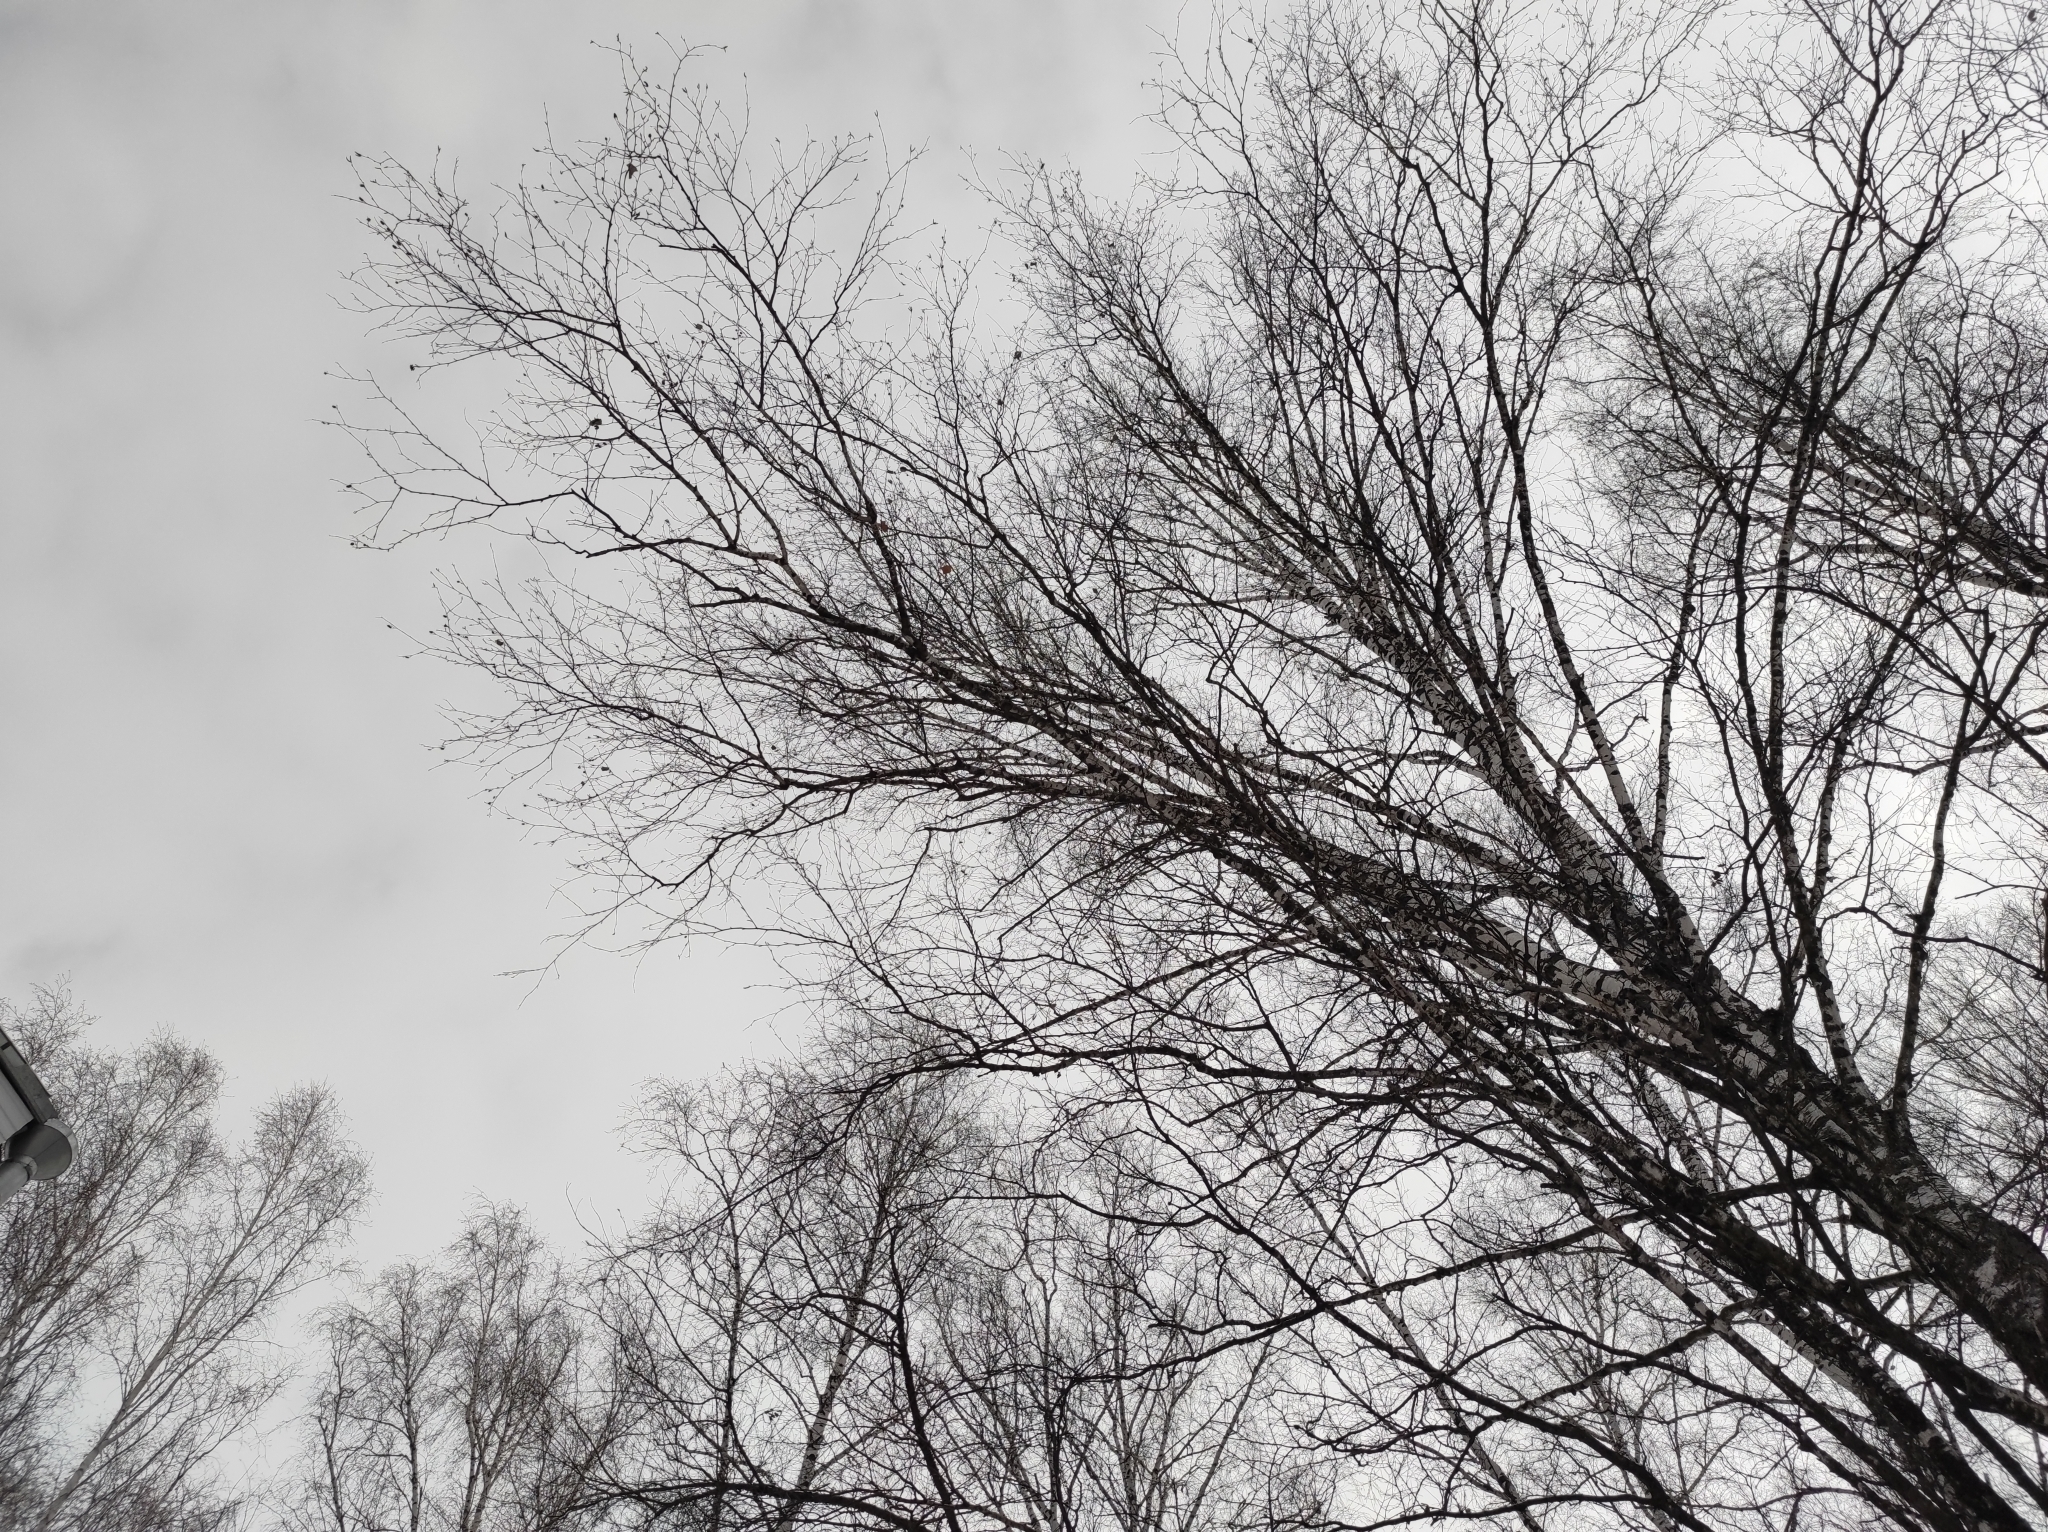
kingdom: Animalia
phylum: Chordata
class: Aves
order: Passeriformes
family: Paridae
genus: Parus
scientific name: Parus major
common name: Great tit
